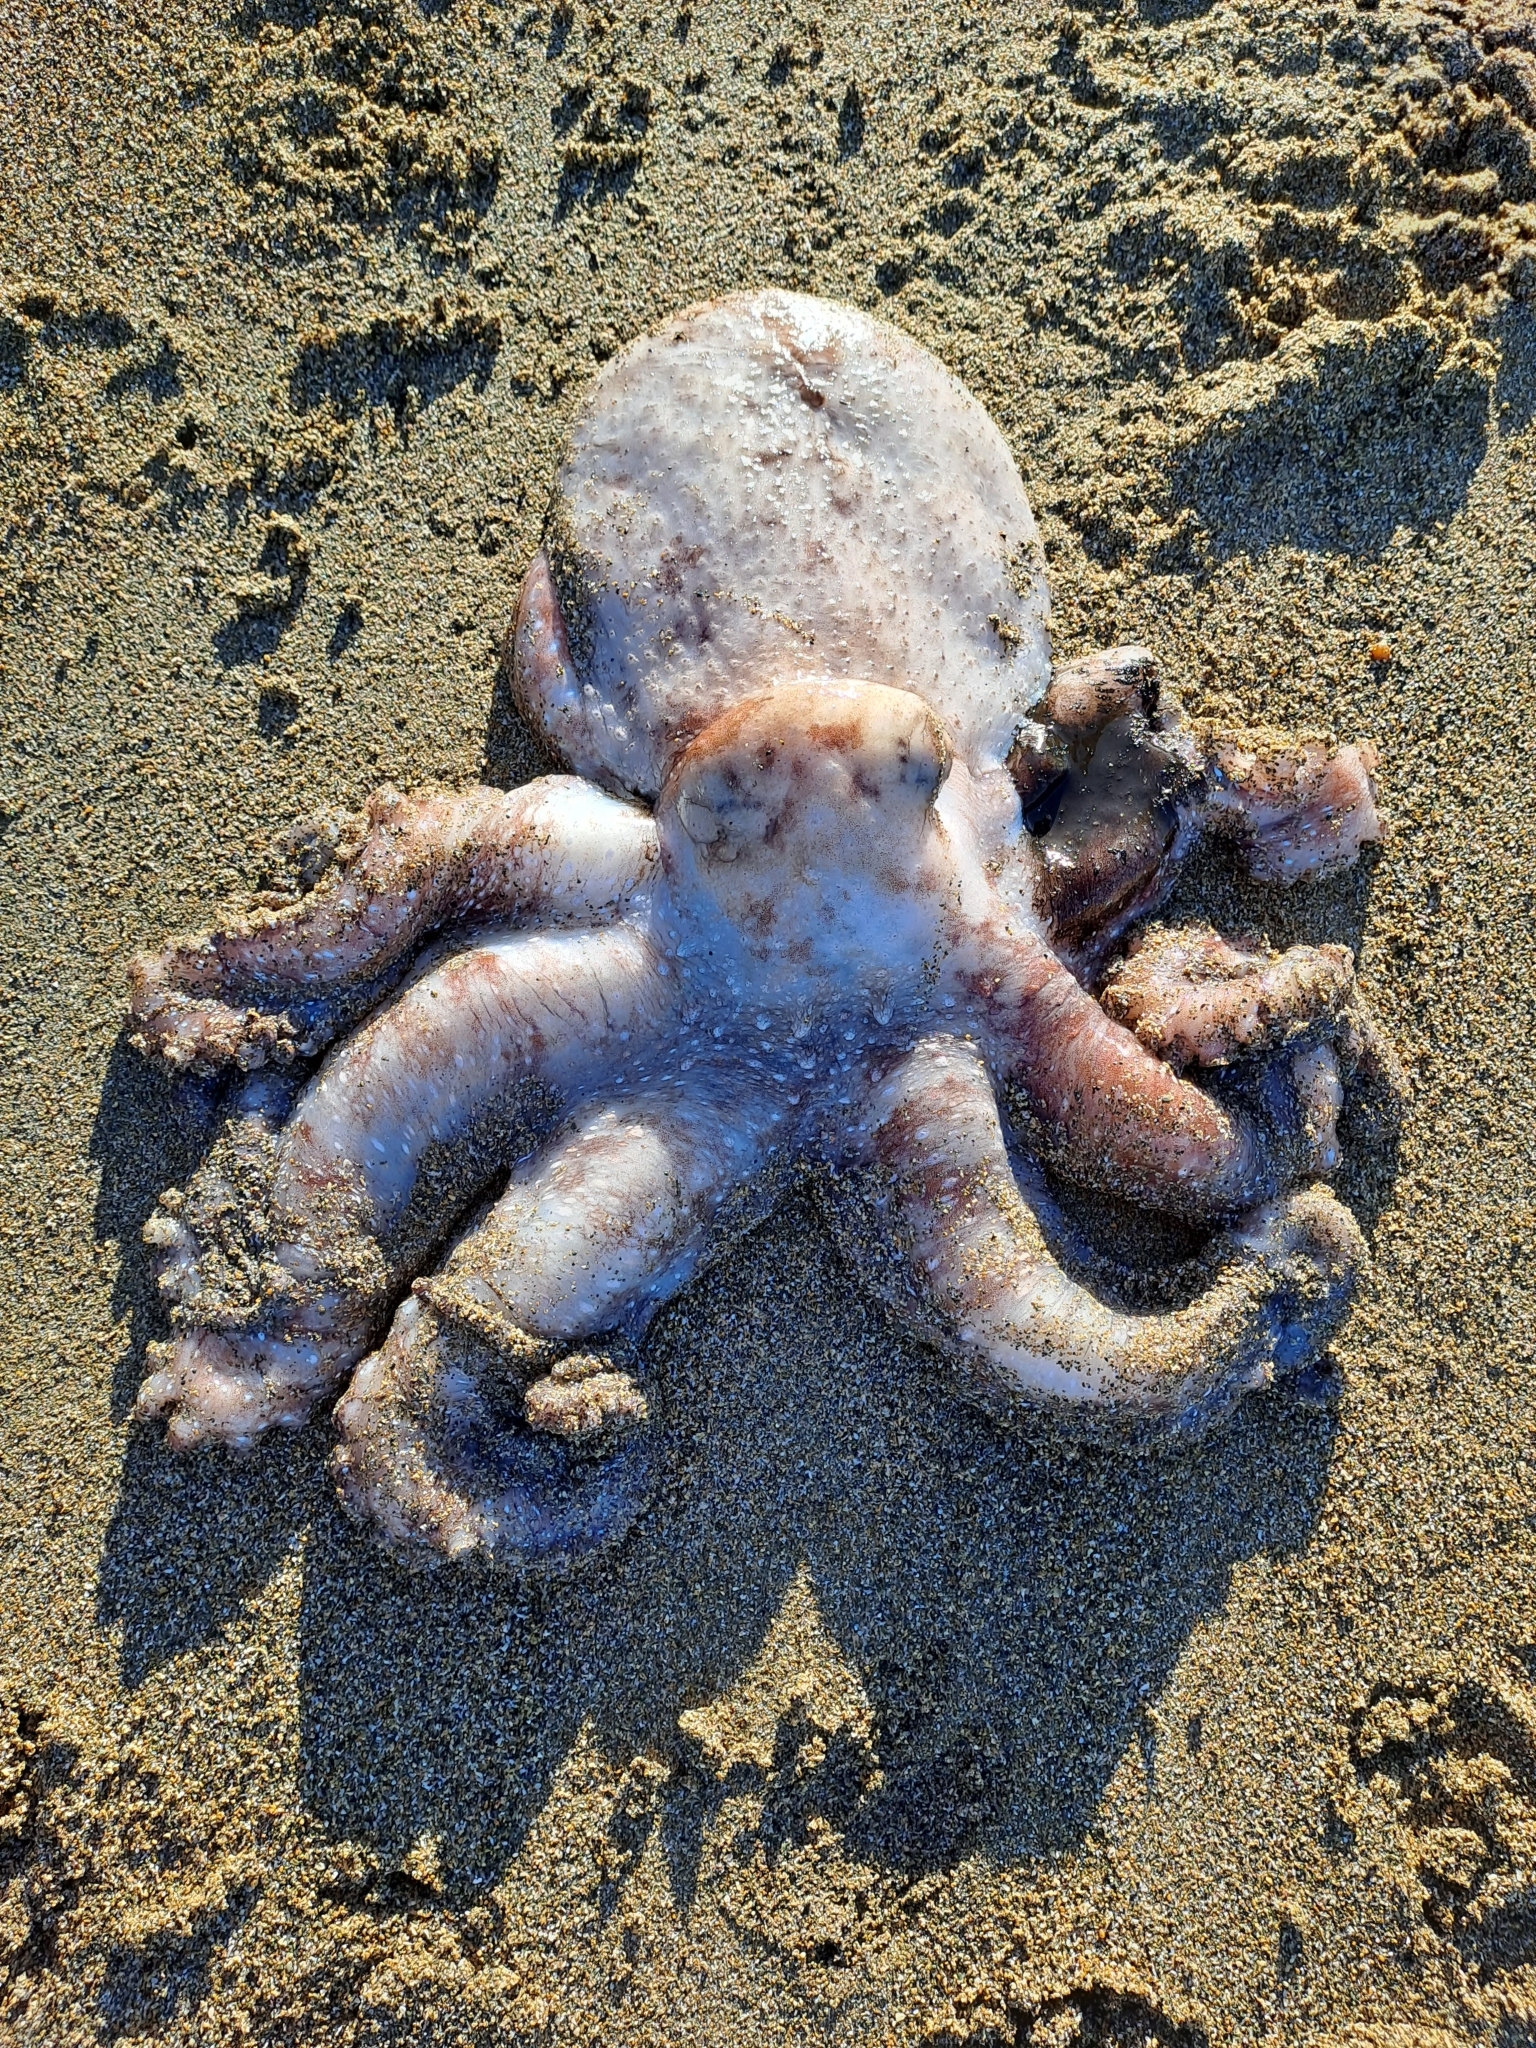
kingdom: Animalia
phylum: Mollusca
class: Cephalopoda
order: Octopoda
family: Octopodidae
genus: Macroctopus
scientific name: Macroctopus maorum
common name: Maori octopus
